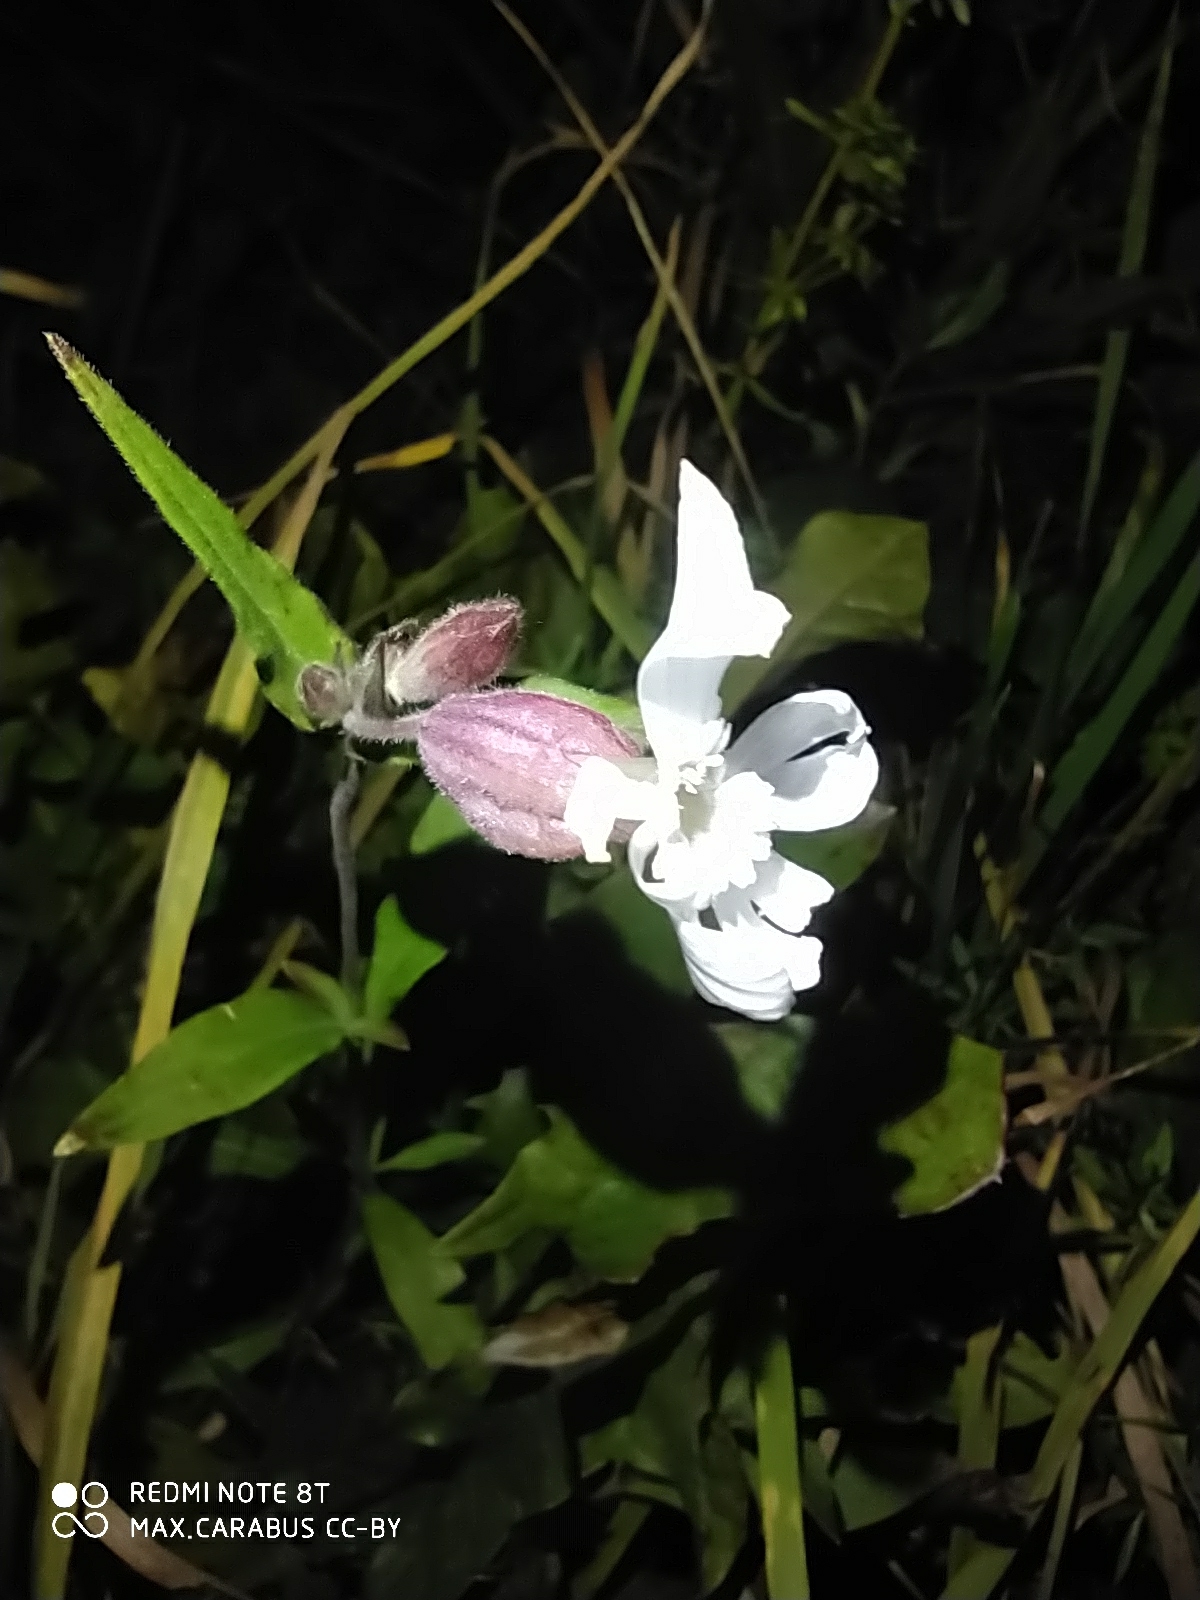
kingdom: Plantae
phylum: Tracheophyta
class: Magnoliopsida
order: Caryophyllales
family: Caryophyllaceae
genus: Silene
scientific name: Silene latifolia
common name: White campion
